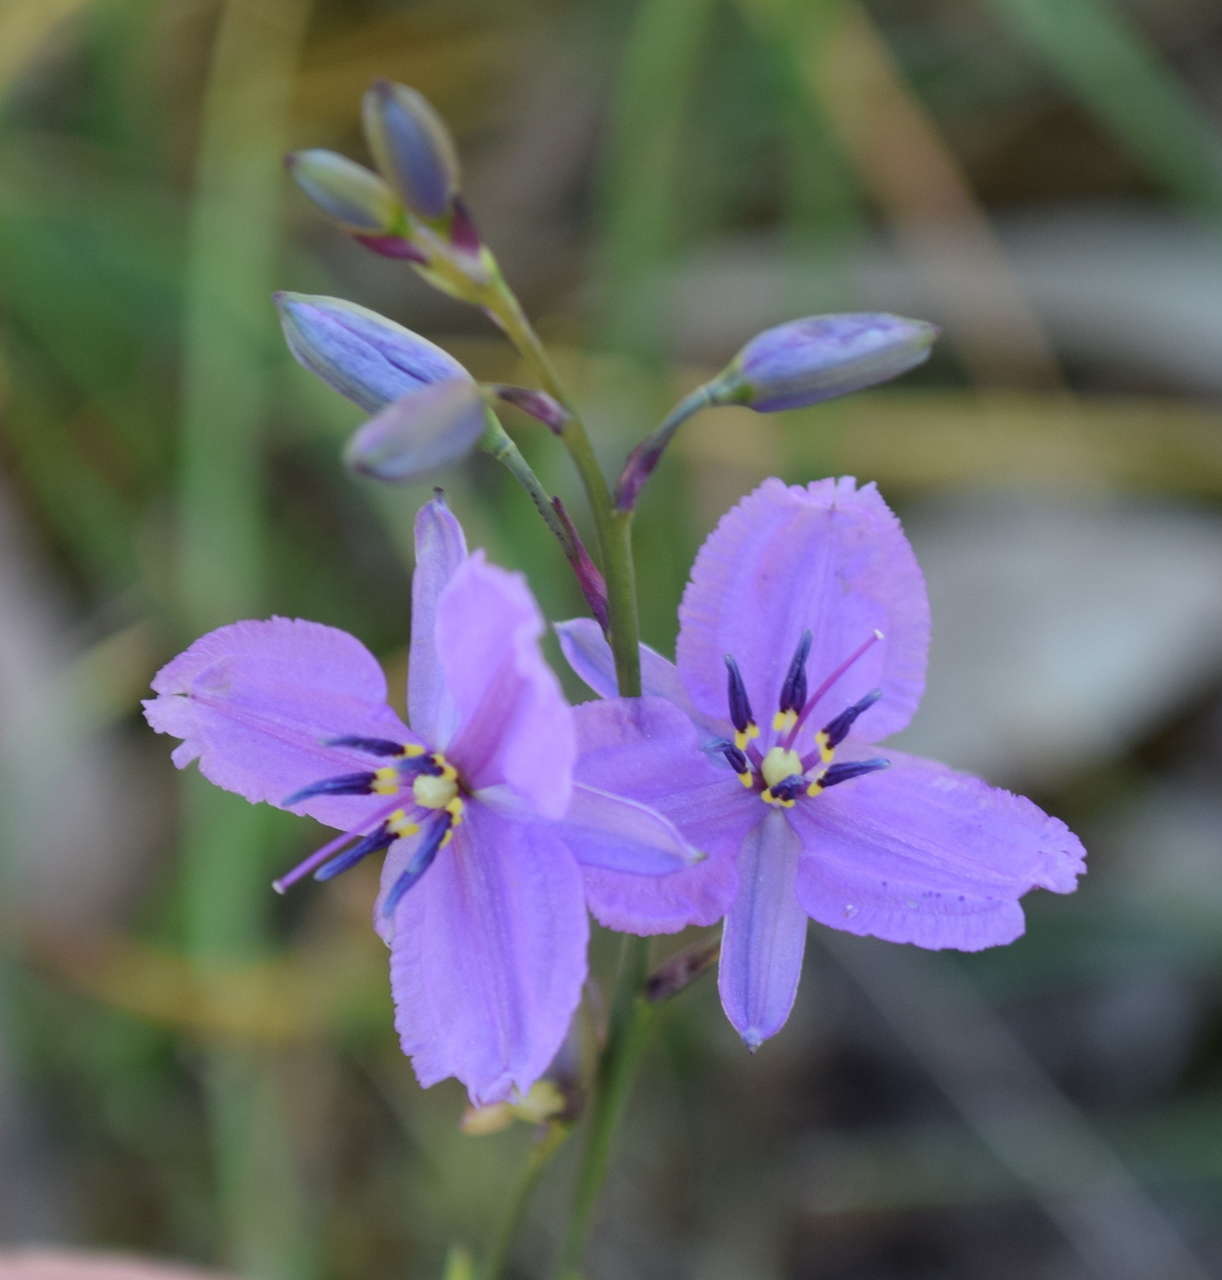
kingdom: Plantae
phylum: Tracheophyta
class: Liliopsida
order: Asparagales
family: Asparagaceae
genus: Arthropodium
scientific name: Arthropodium strictum
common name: Chocolate-lily
